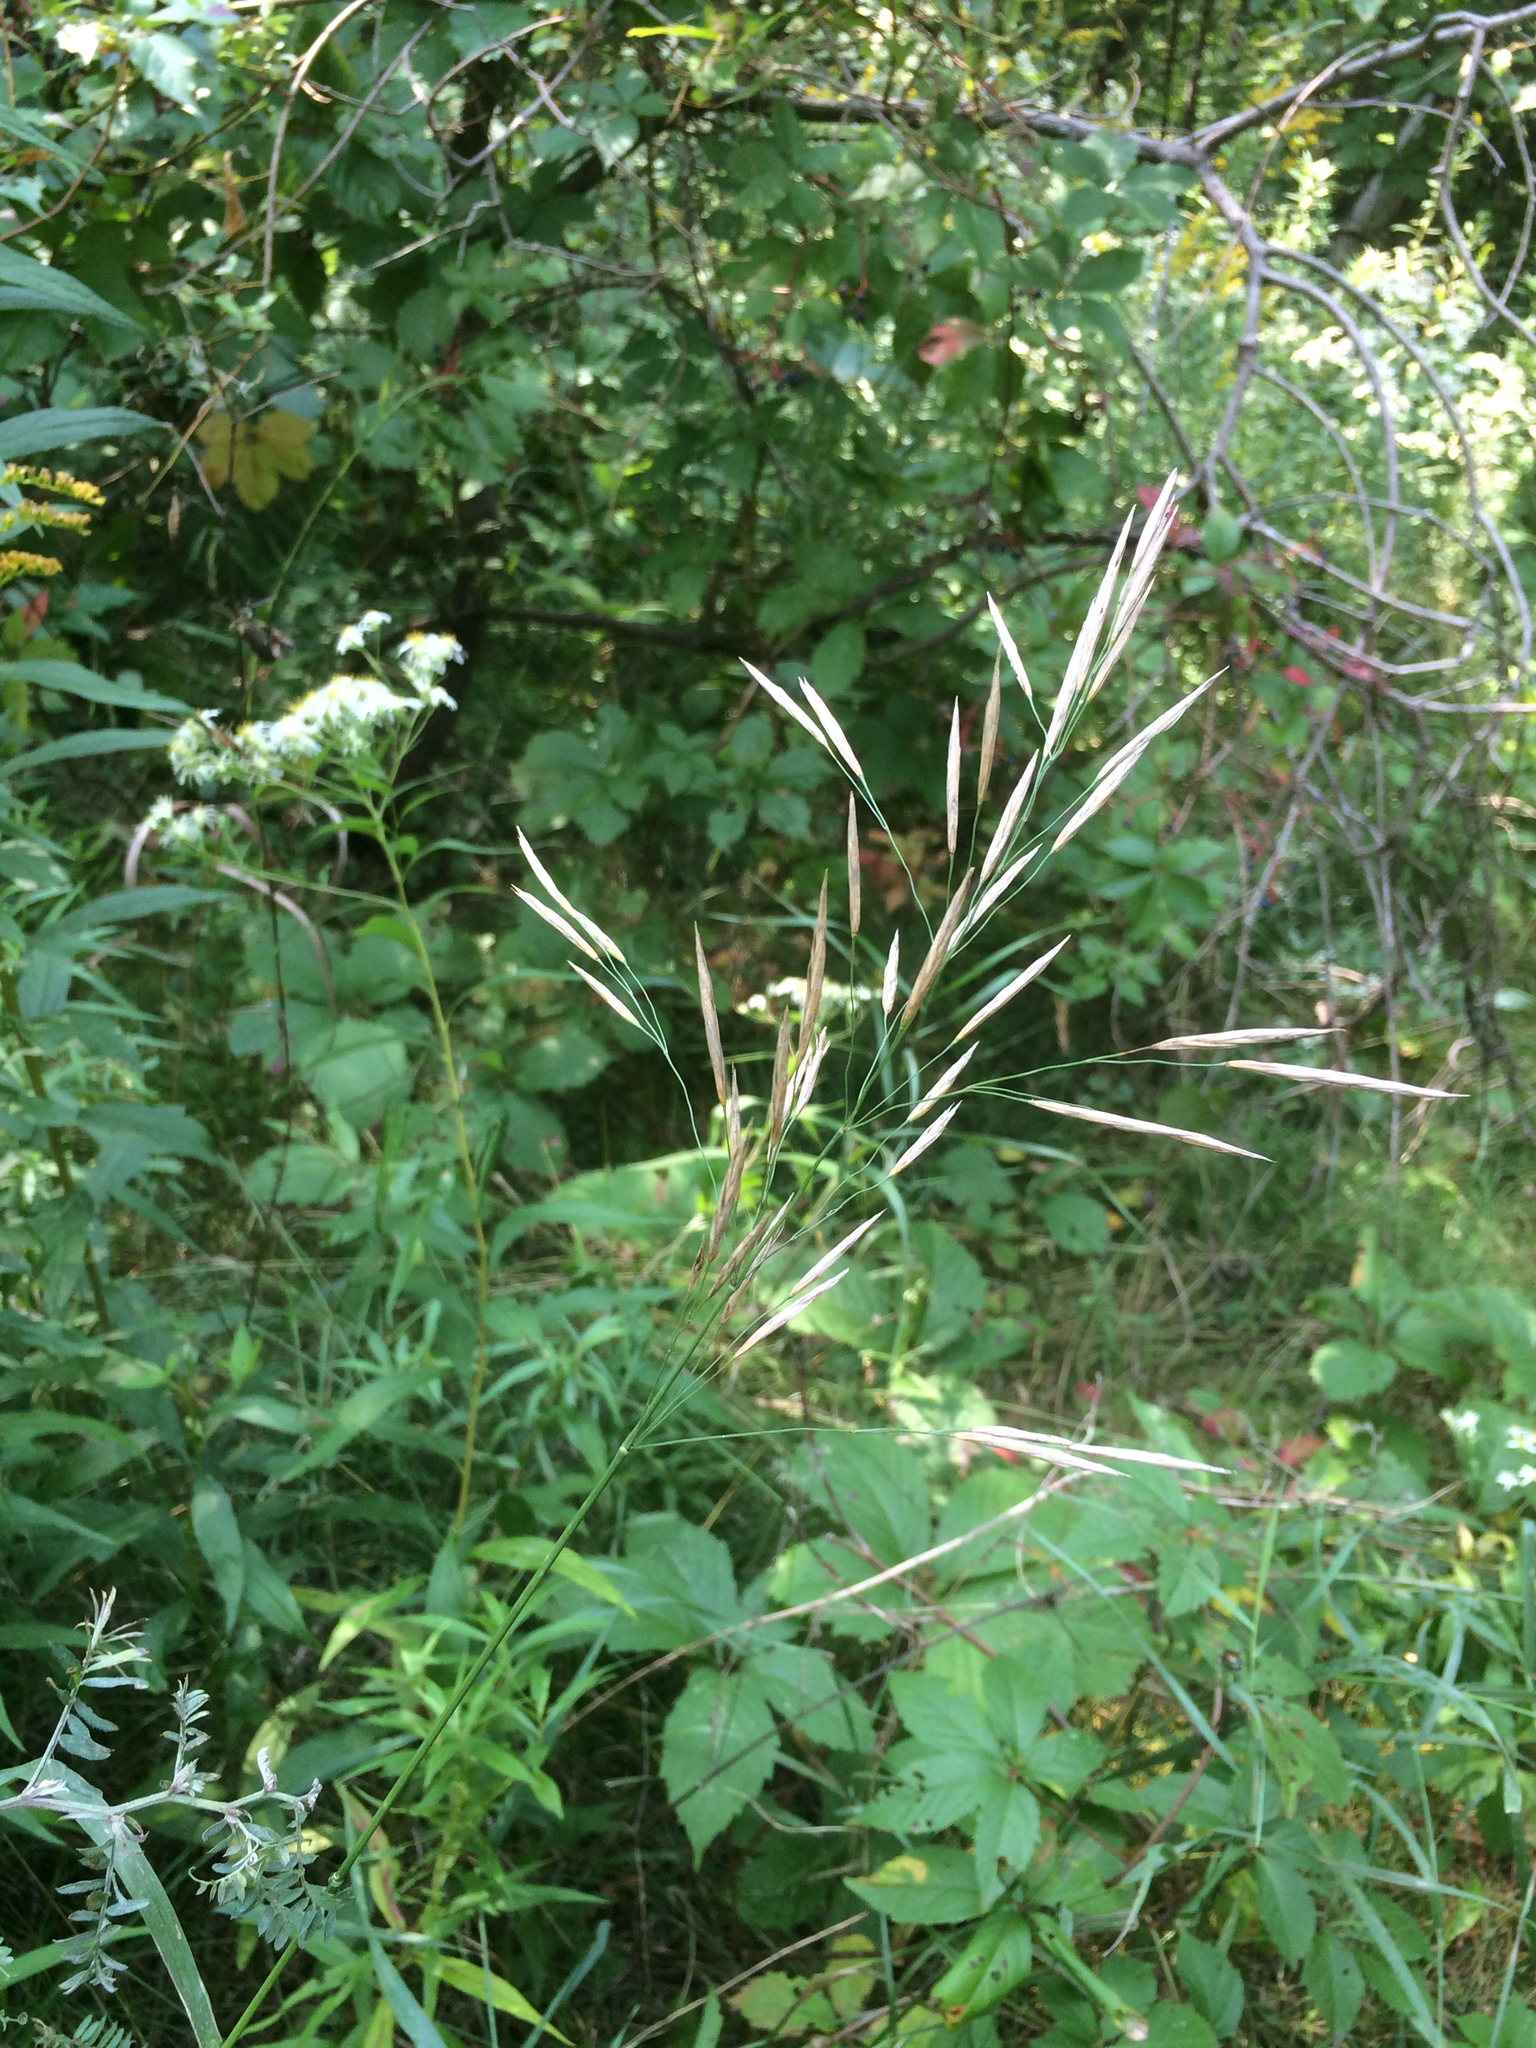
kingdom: Plantae
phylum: Tracheophyta
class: Liliopsida
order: Poales
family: Poaceae
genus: Bromus
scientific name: Bromus inermis
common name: Smooth brome
